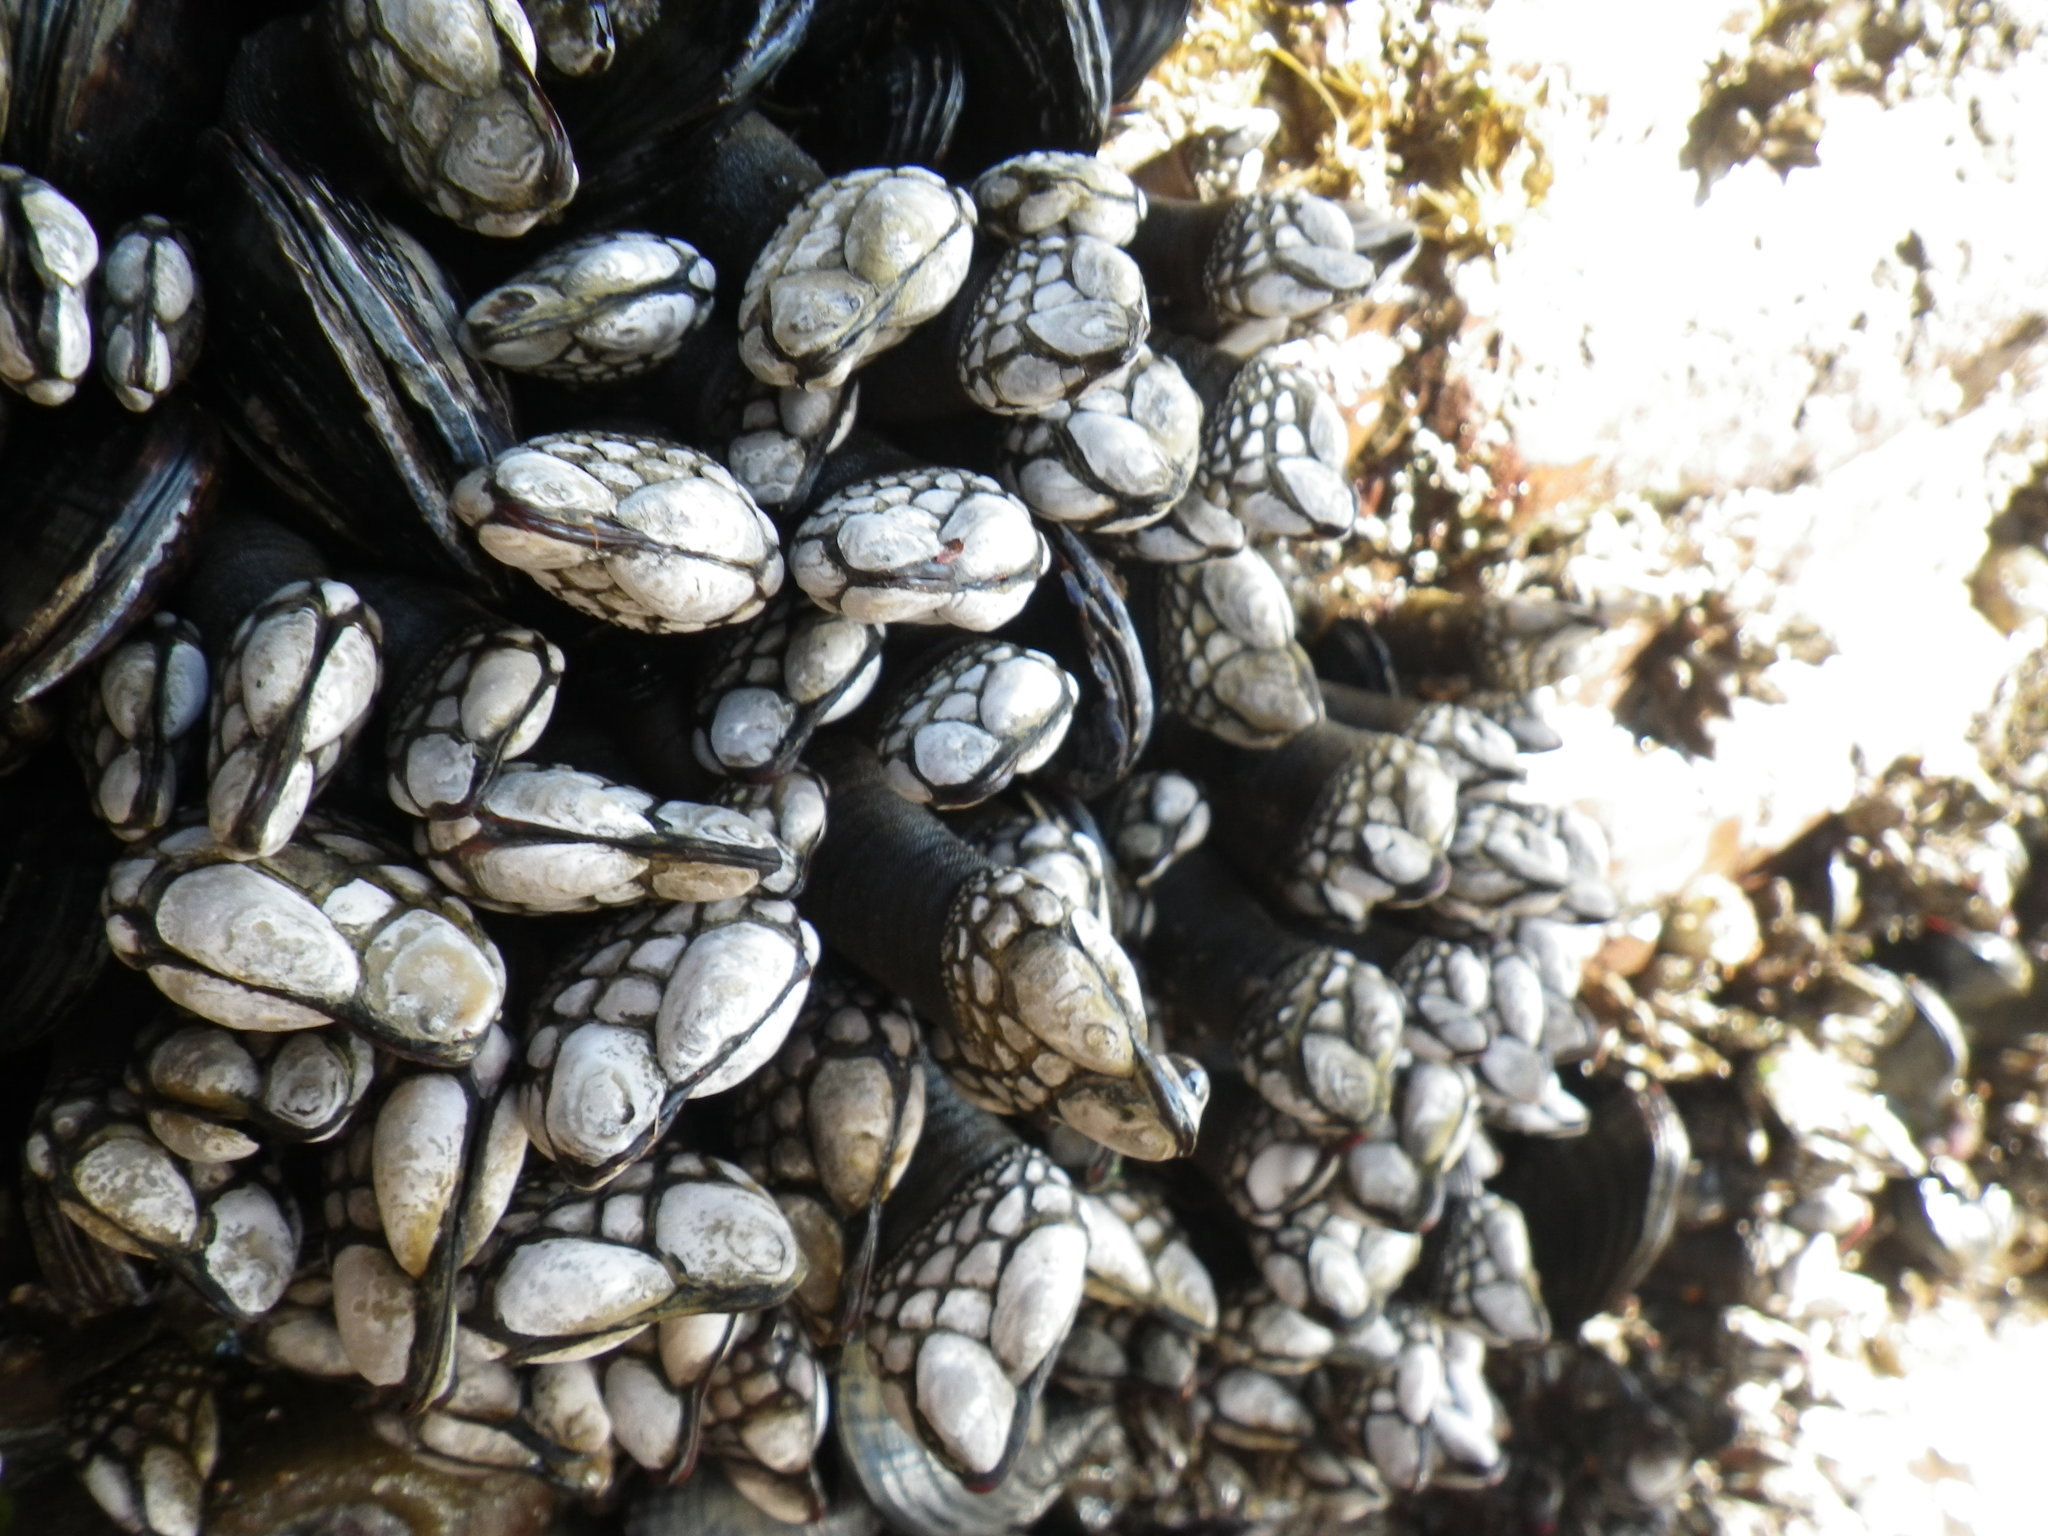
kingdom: Animalia
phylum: Arthropoda
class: Maxillopoda
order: Pedunculata
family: Pollicipedidae
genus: Pollicipes
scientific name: Pollicipes polymerus
